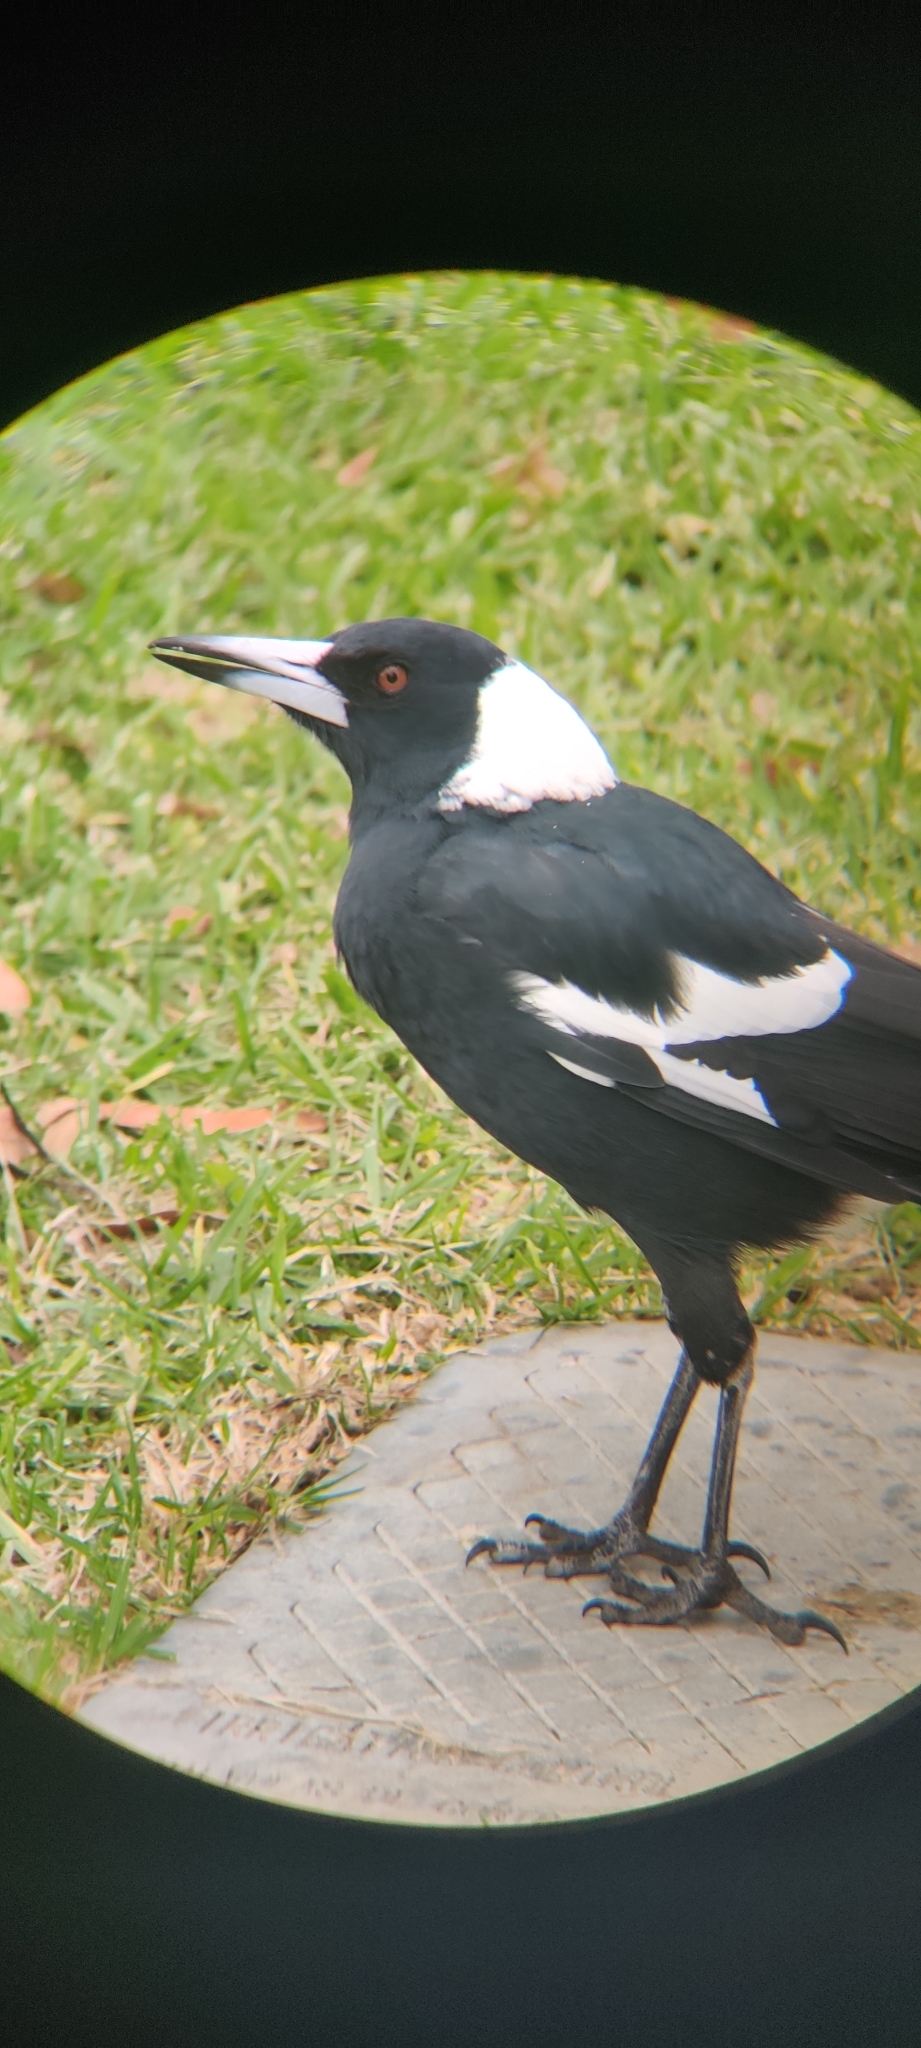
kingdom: Animalia
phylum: Chordata
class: Aves
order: Passeriformes
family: Cracticidae
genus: Gymnorhina
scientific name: Gymnorhina tibicen
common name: Australian magpie
